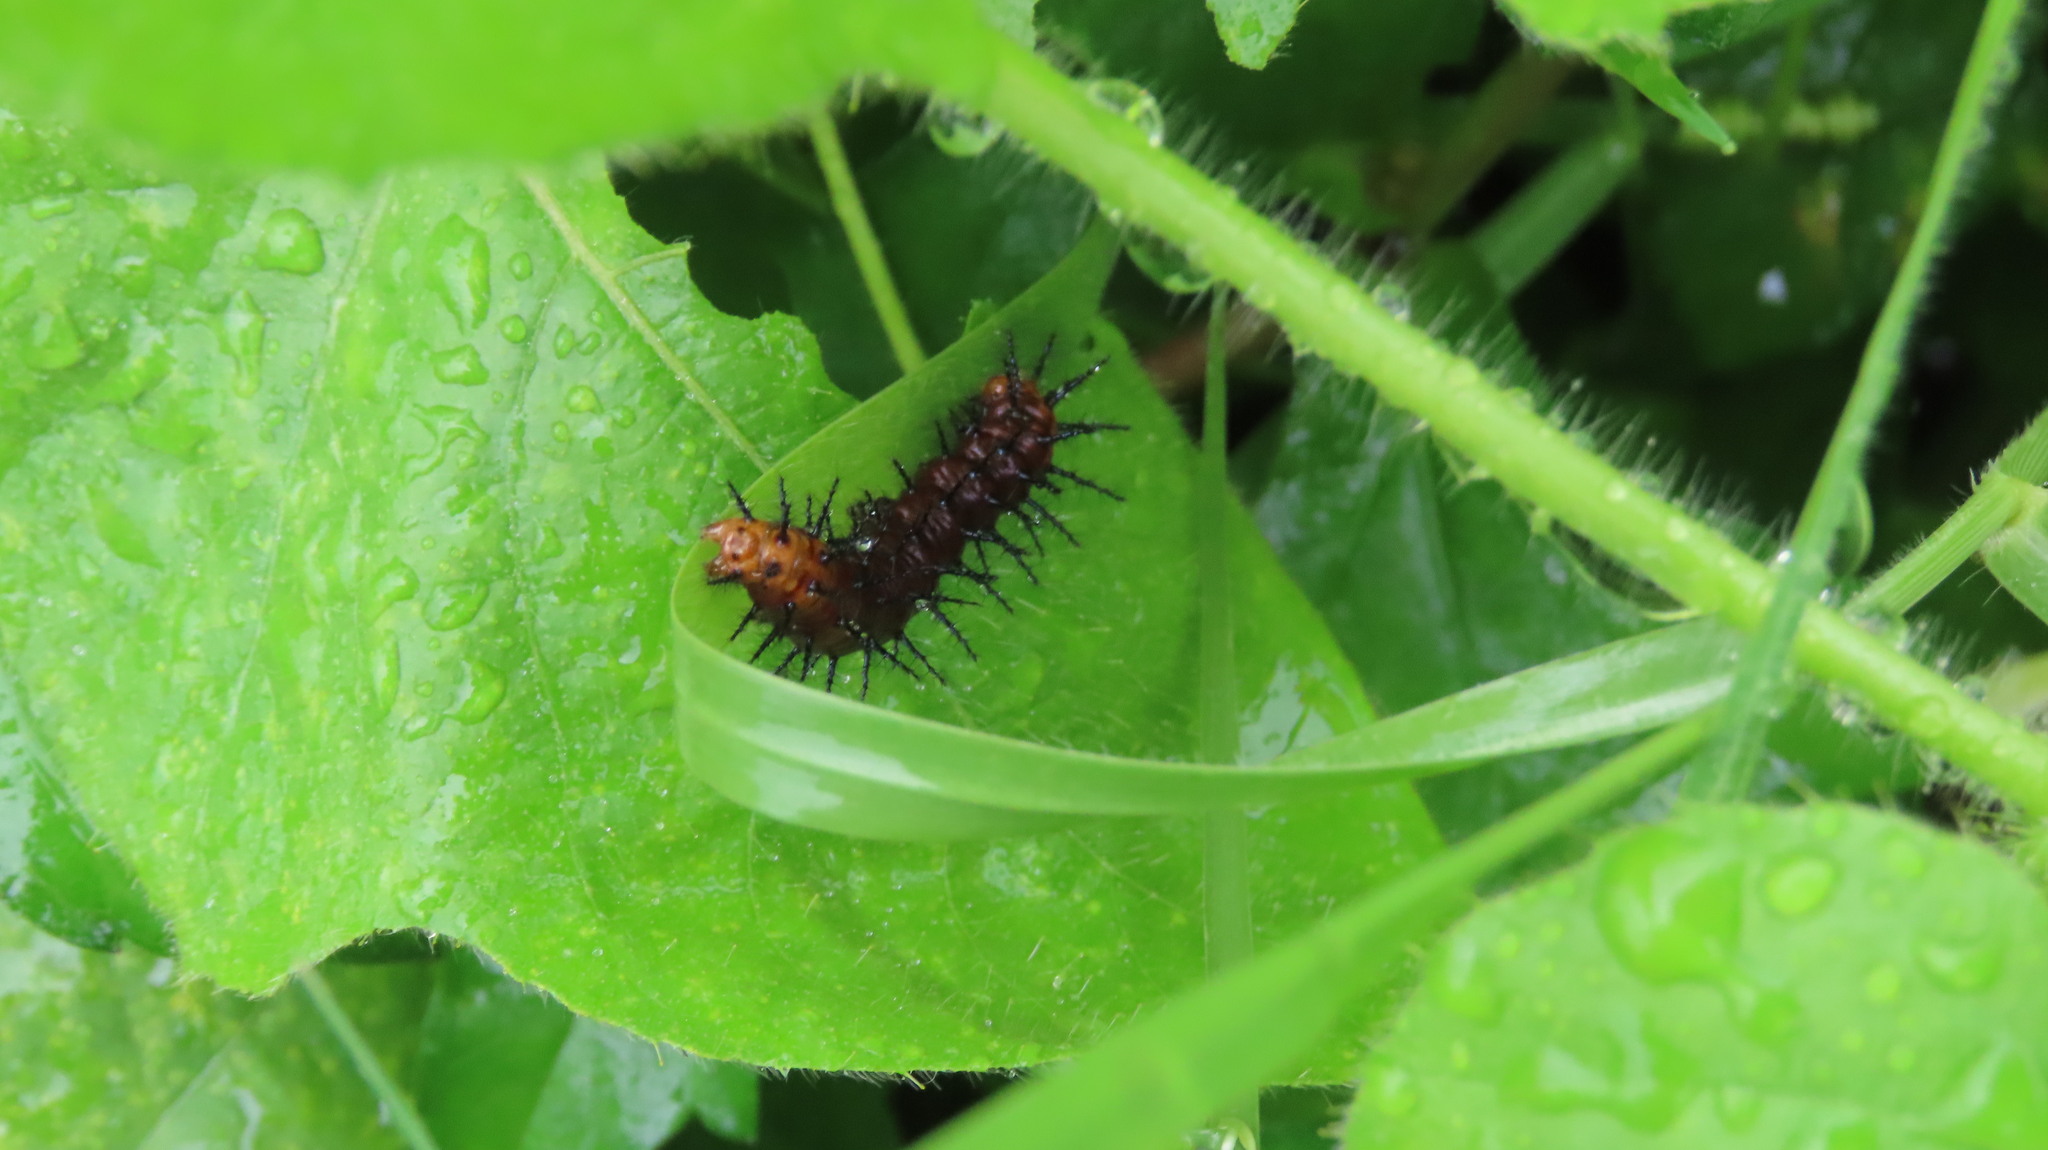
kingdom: Animalia
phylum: Arthropoda
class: Insecta
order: Lepidoptera
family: Nymphalidae
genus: Acraea
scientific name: Acraea terpsicore
